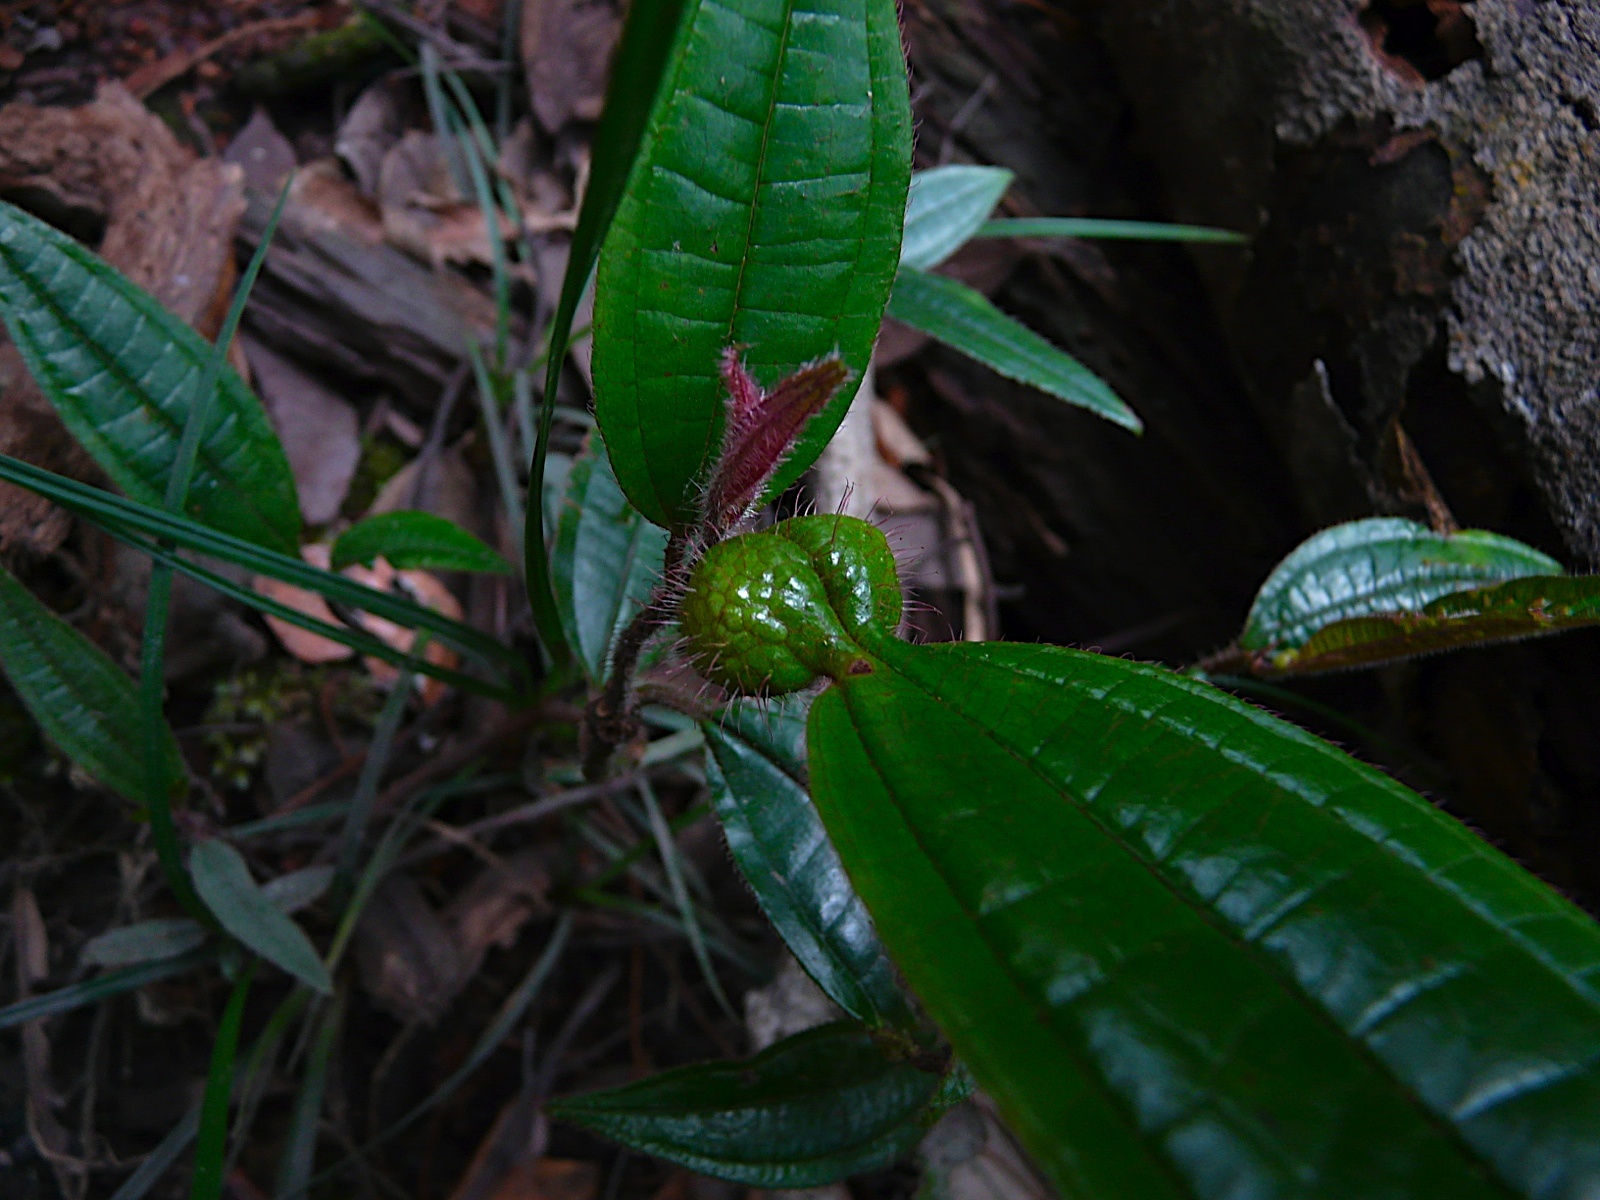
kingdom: Plantae
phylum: Tracheophyta
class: Magnoliopsida
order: Myrtales
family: Melastomataceae
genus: Miconia
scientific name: Miconia tococa
